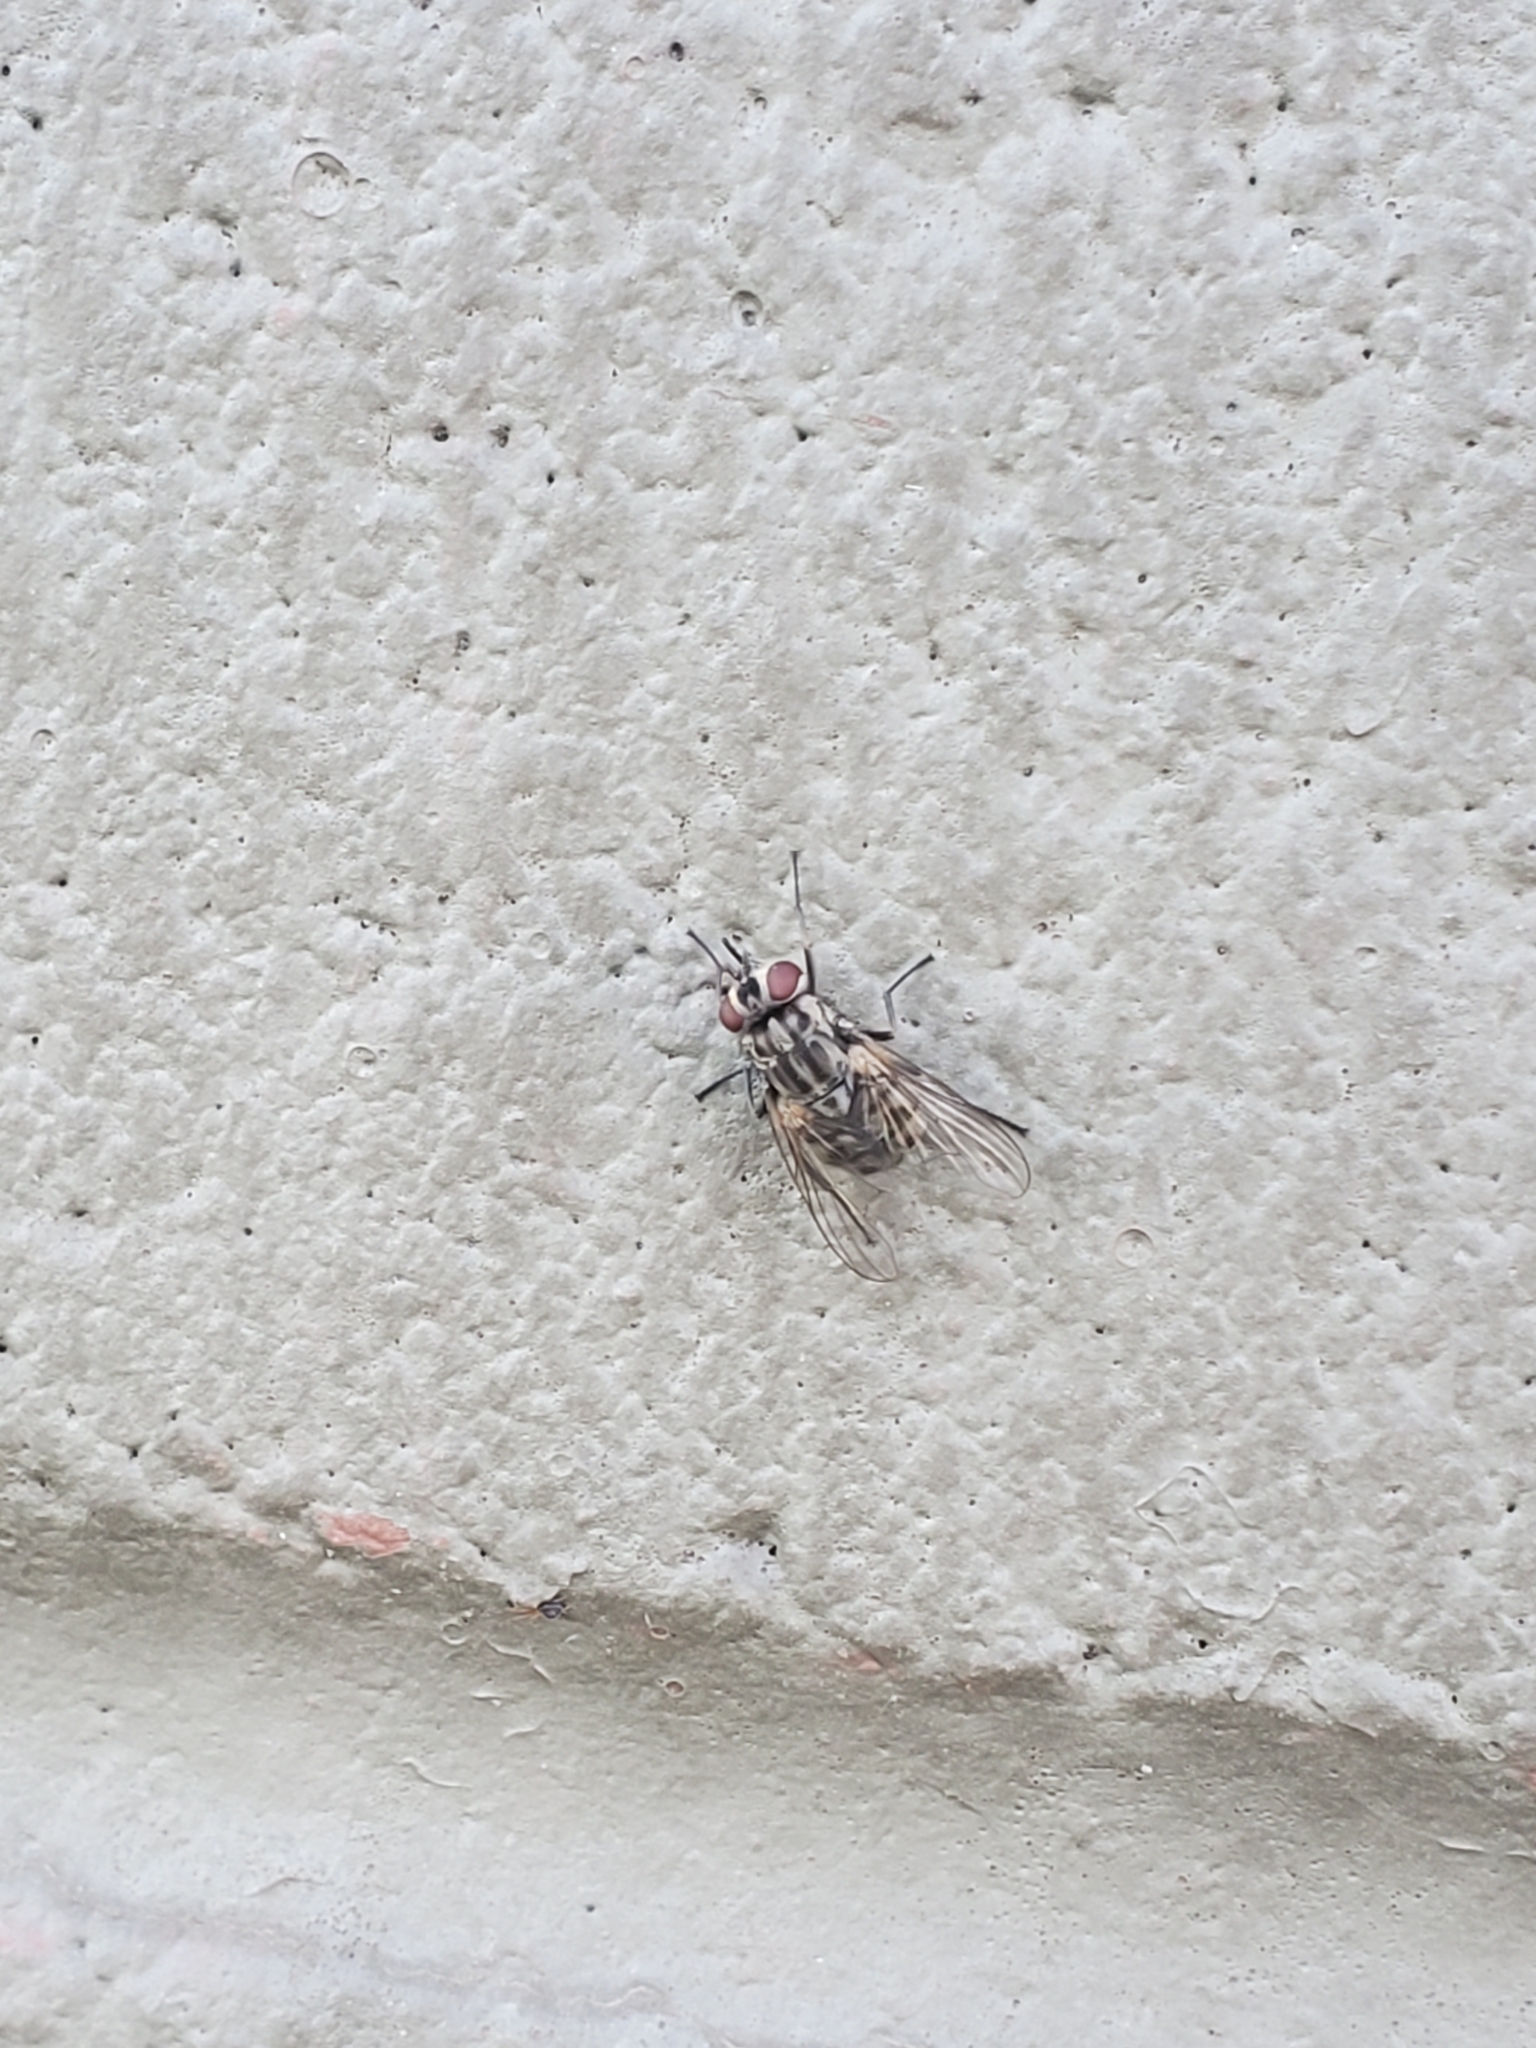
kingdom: Animalia
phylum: Arthropoda
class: Insecta
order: Diptera
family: Muscidae
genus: Stomoxys
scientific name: Stomoxys calcitrans
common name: Stable fly
